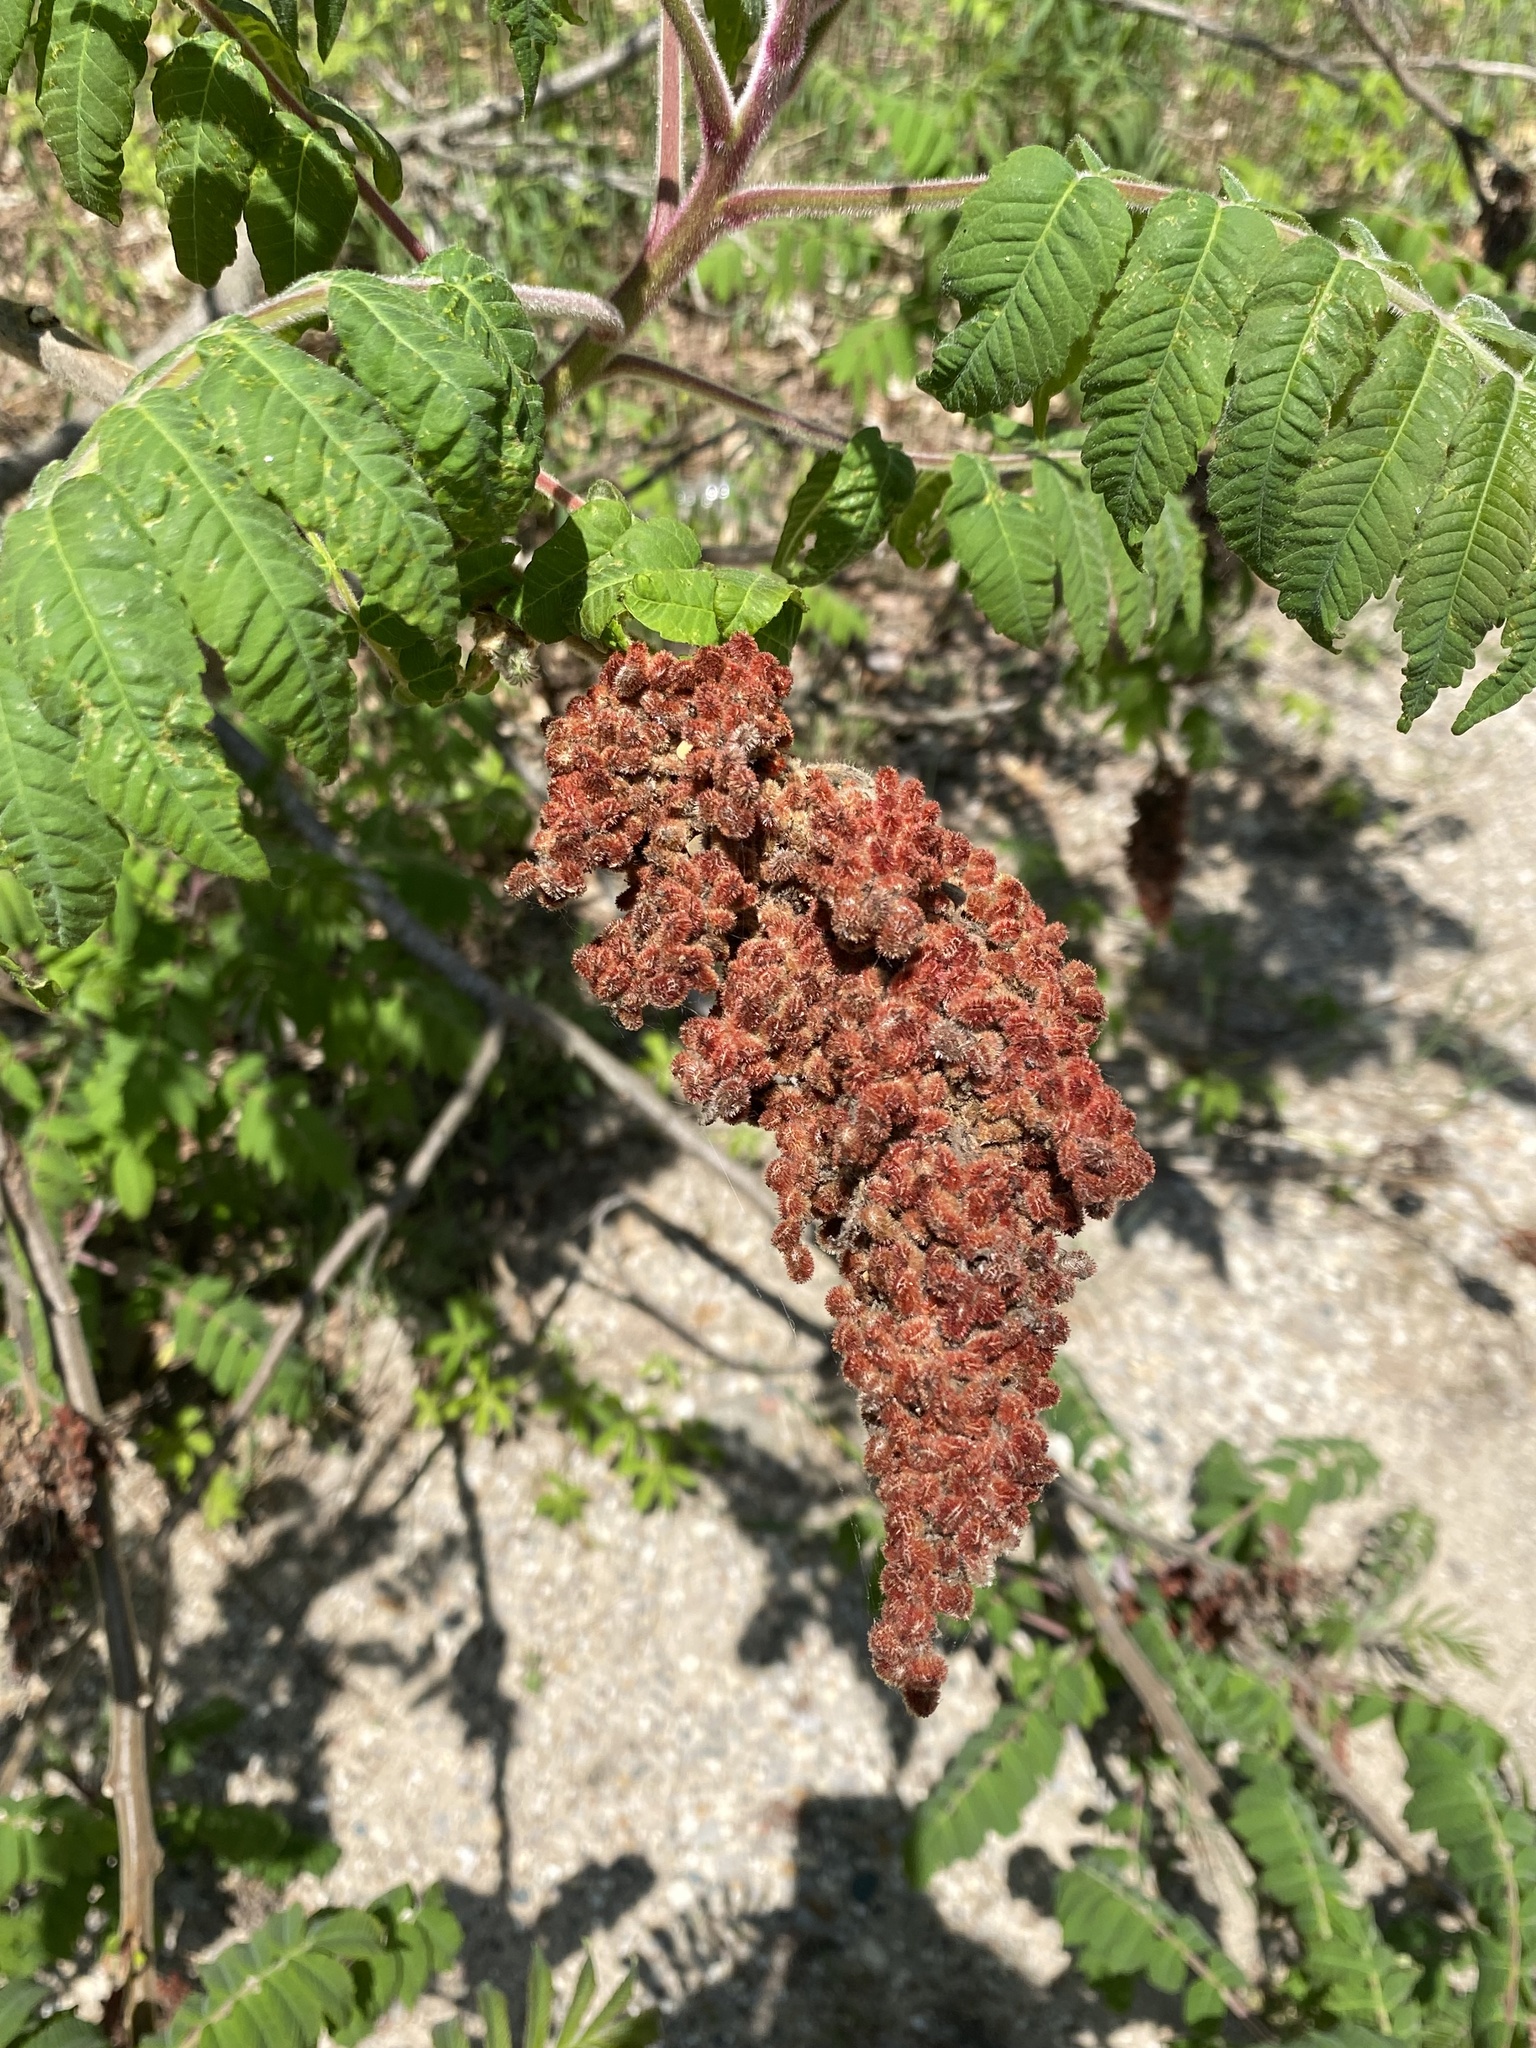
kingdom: Plantae
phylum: Tracheophyta
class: Magnoliopsida
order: Sapindales
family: Anacardiaceae
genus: Rhus
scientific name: Rhus typhina
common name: Staghorn sumac
